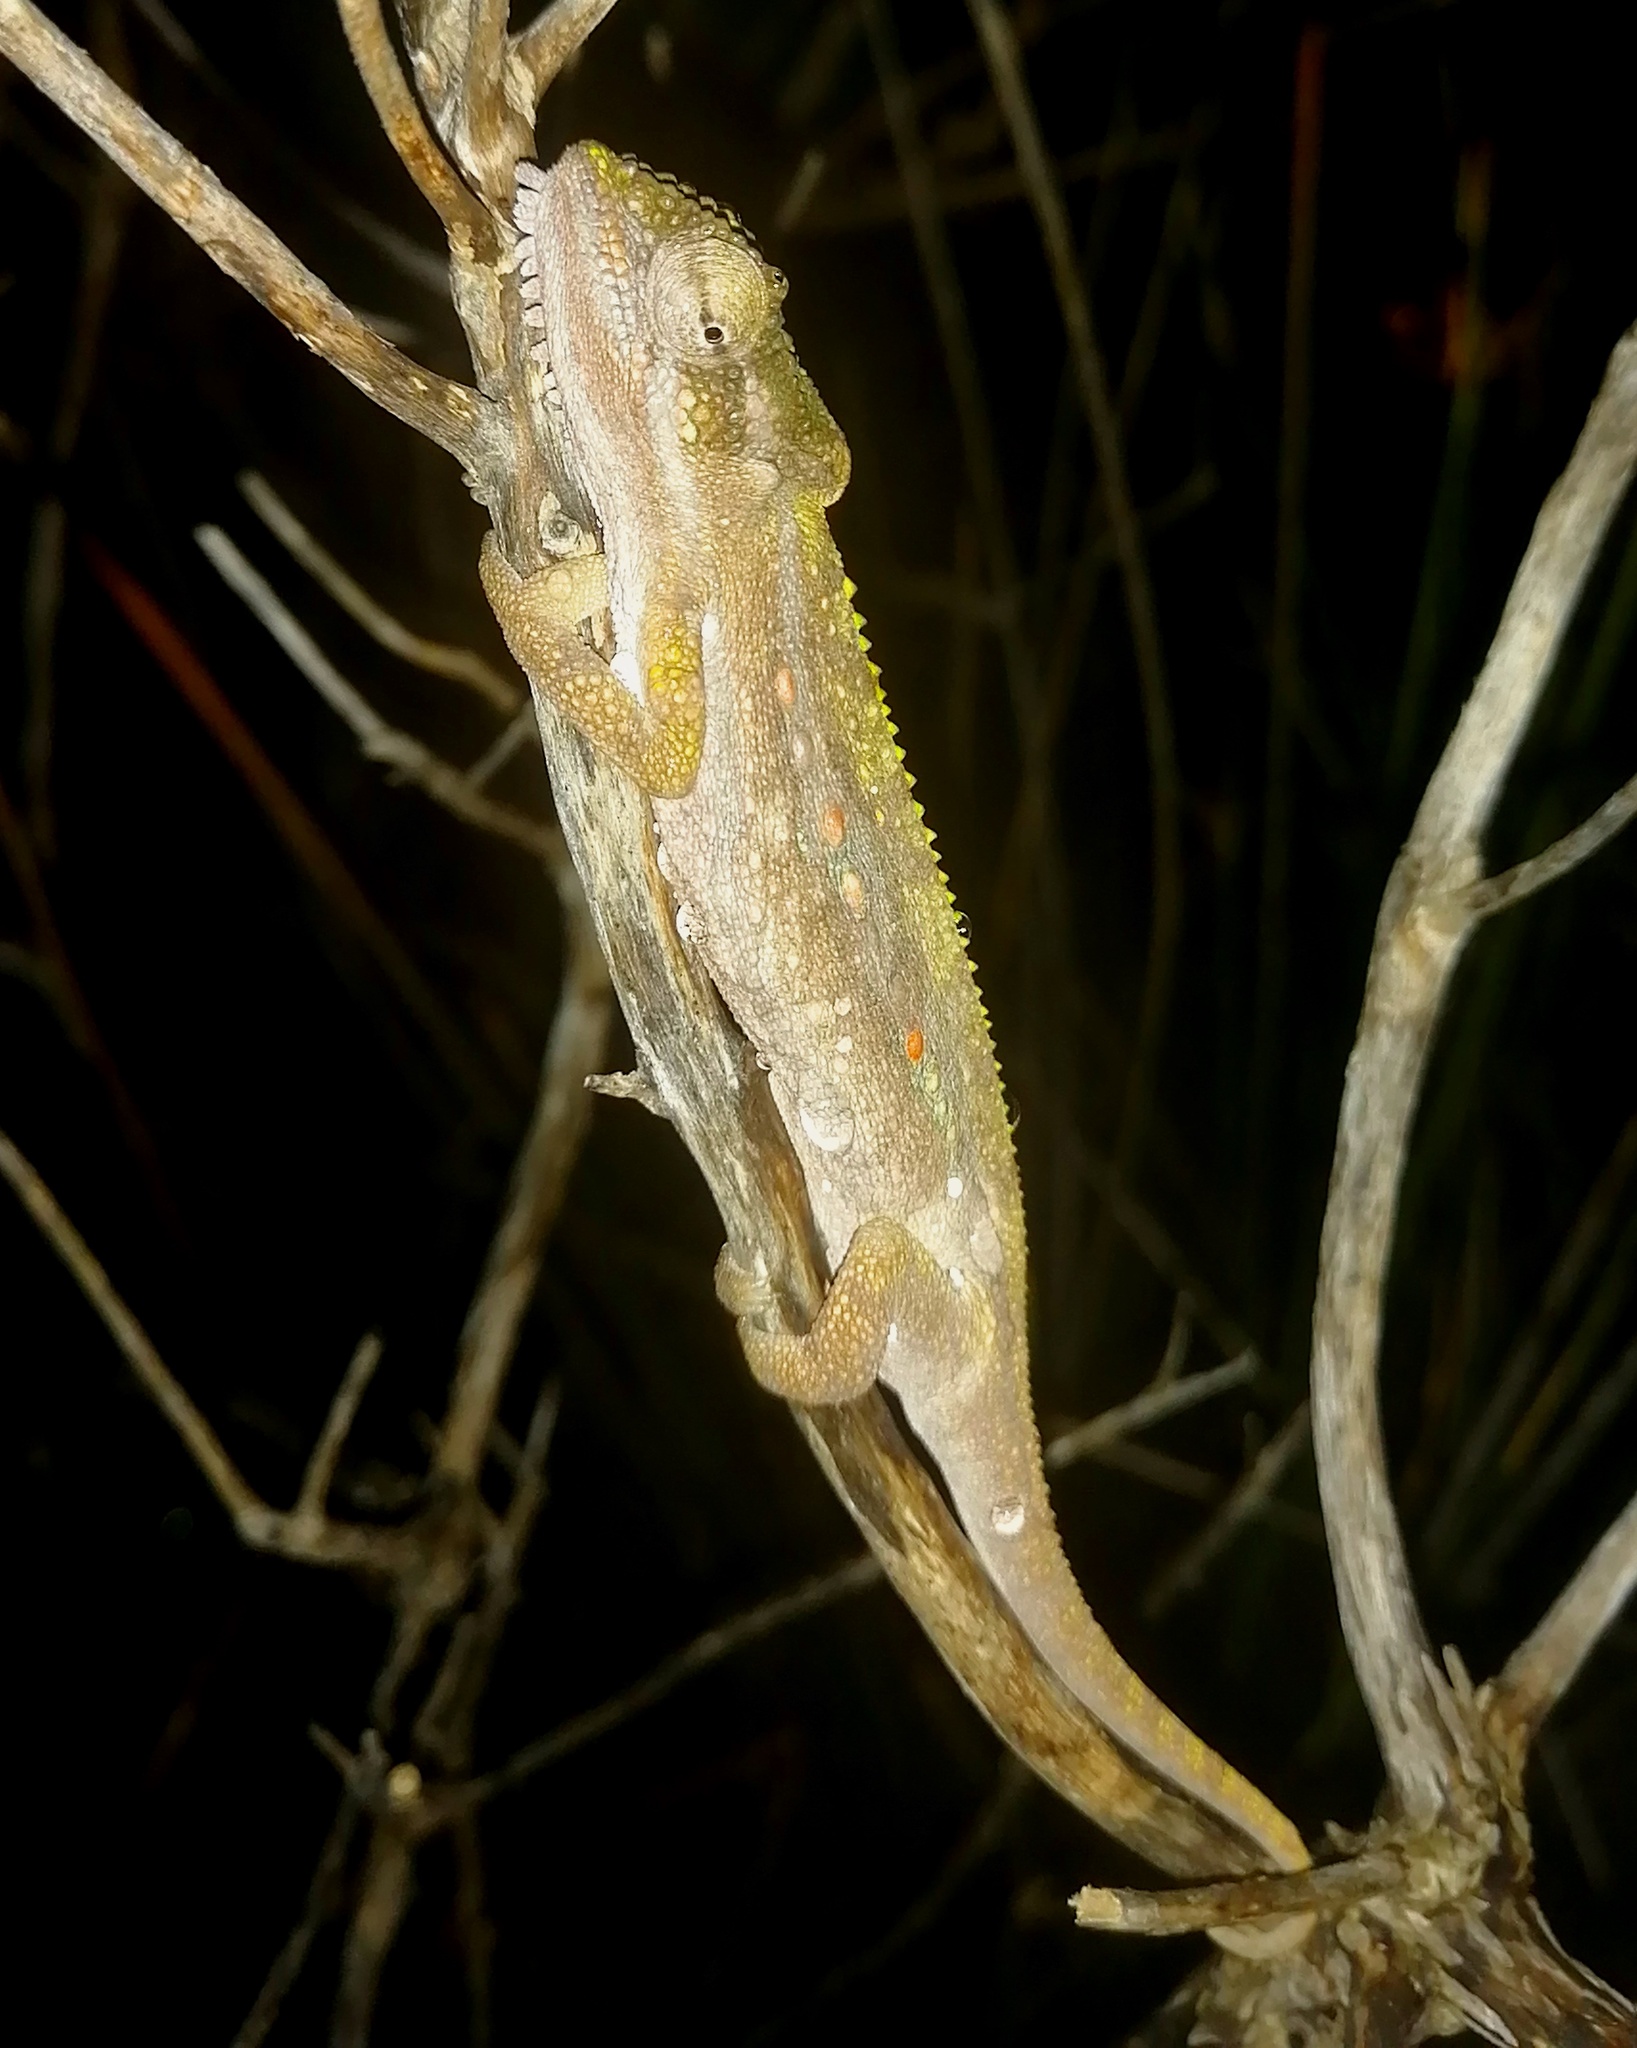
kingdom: Animalia
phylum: Chordata
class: Squamata
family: Chamaeleonidae
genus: Bradypodion
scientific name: Bradypodion pumilum
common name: Cape dwarf chameleon
